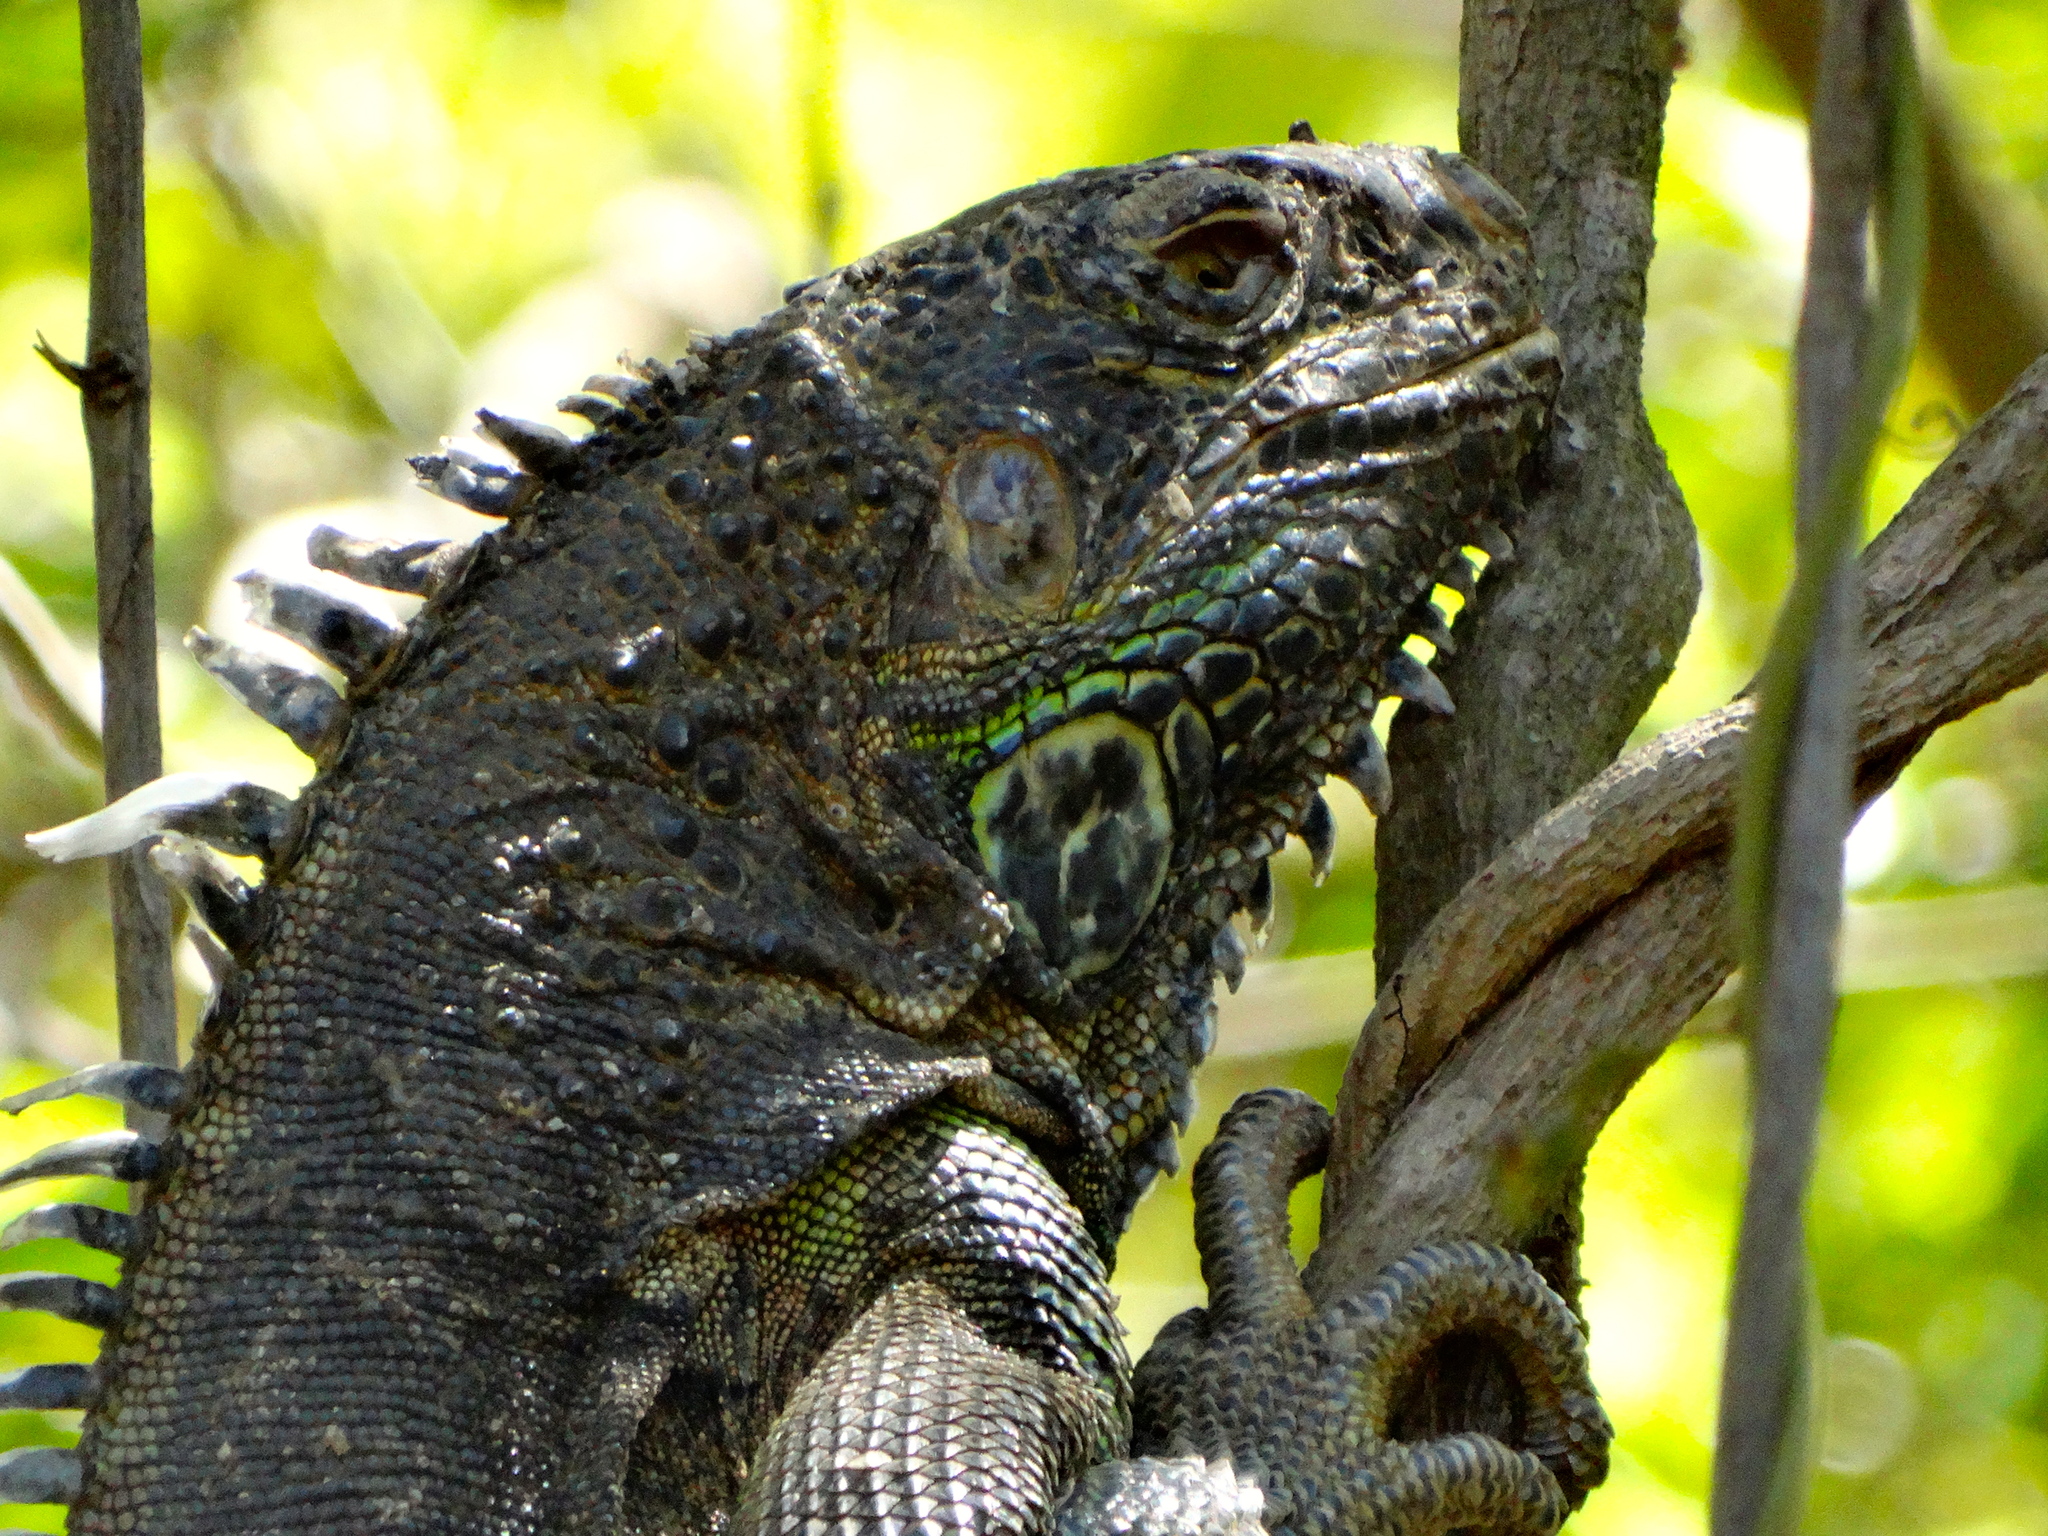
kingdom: Animalia
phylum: Chordata
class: Squamata
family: Iguanidae
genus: Iguana
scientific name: Iguana iguana
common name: Green iguana
